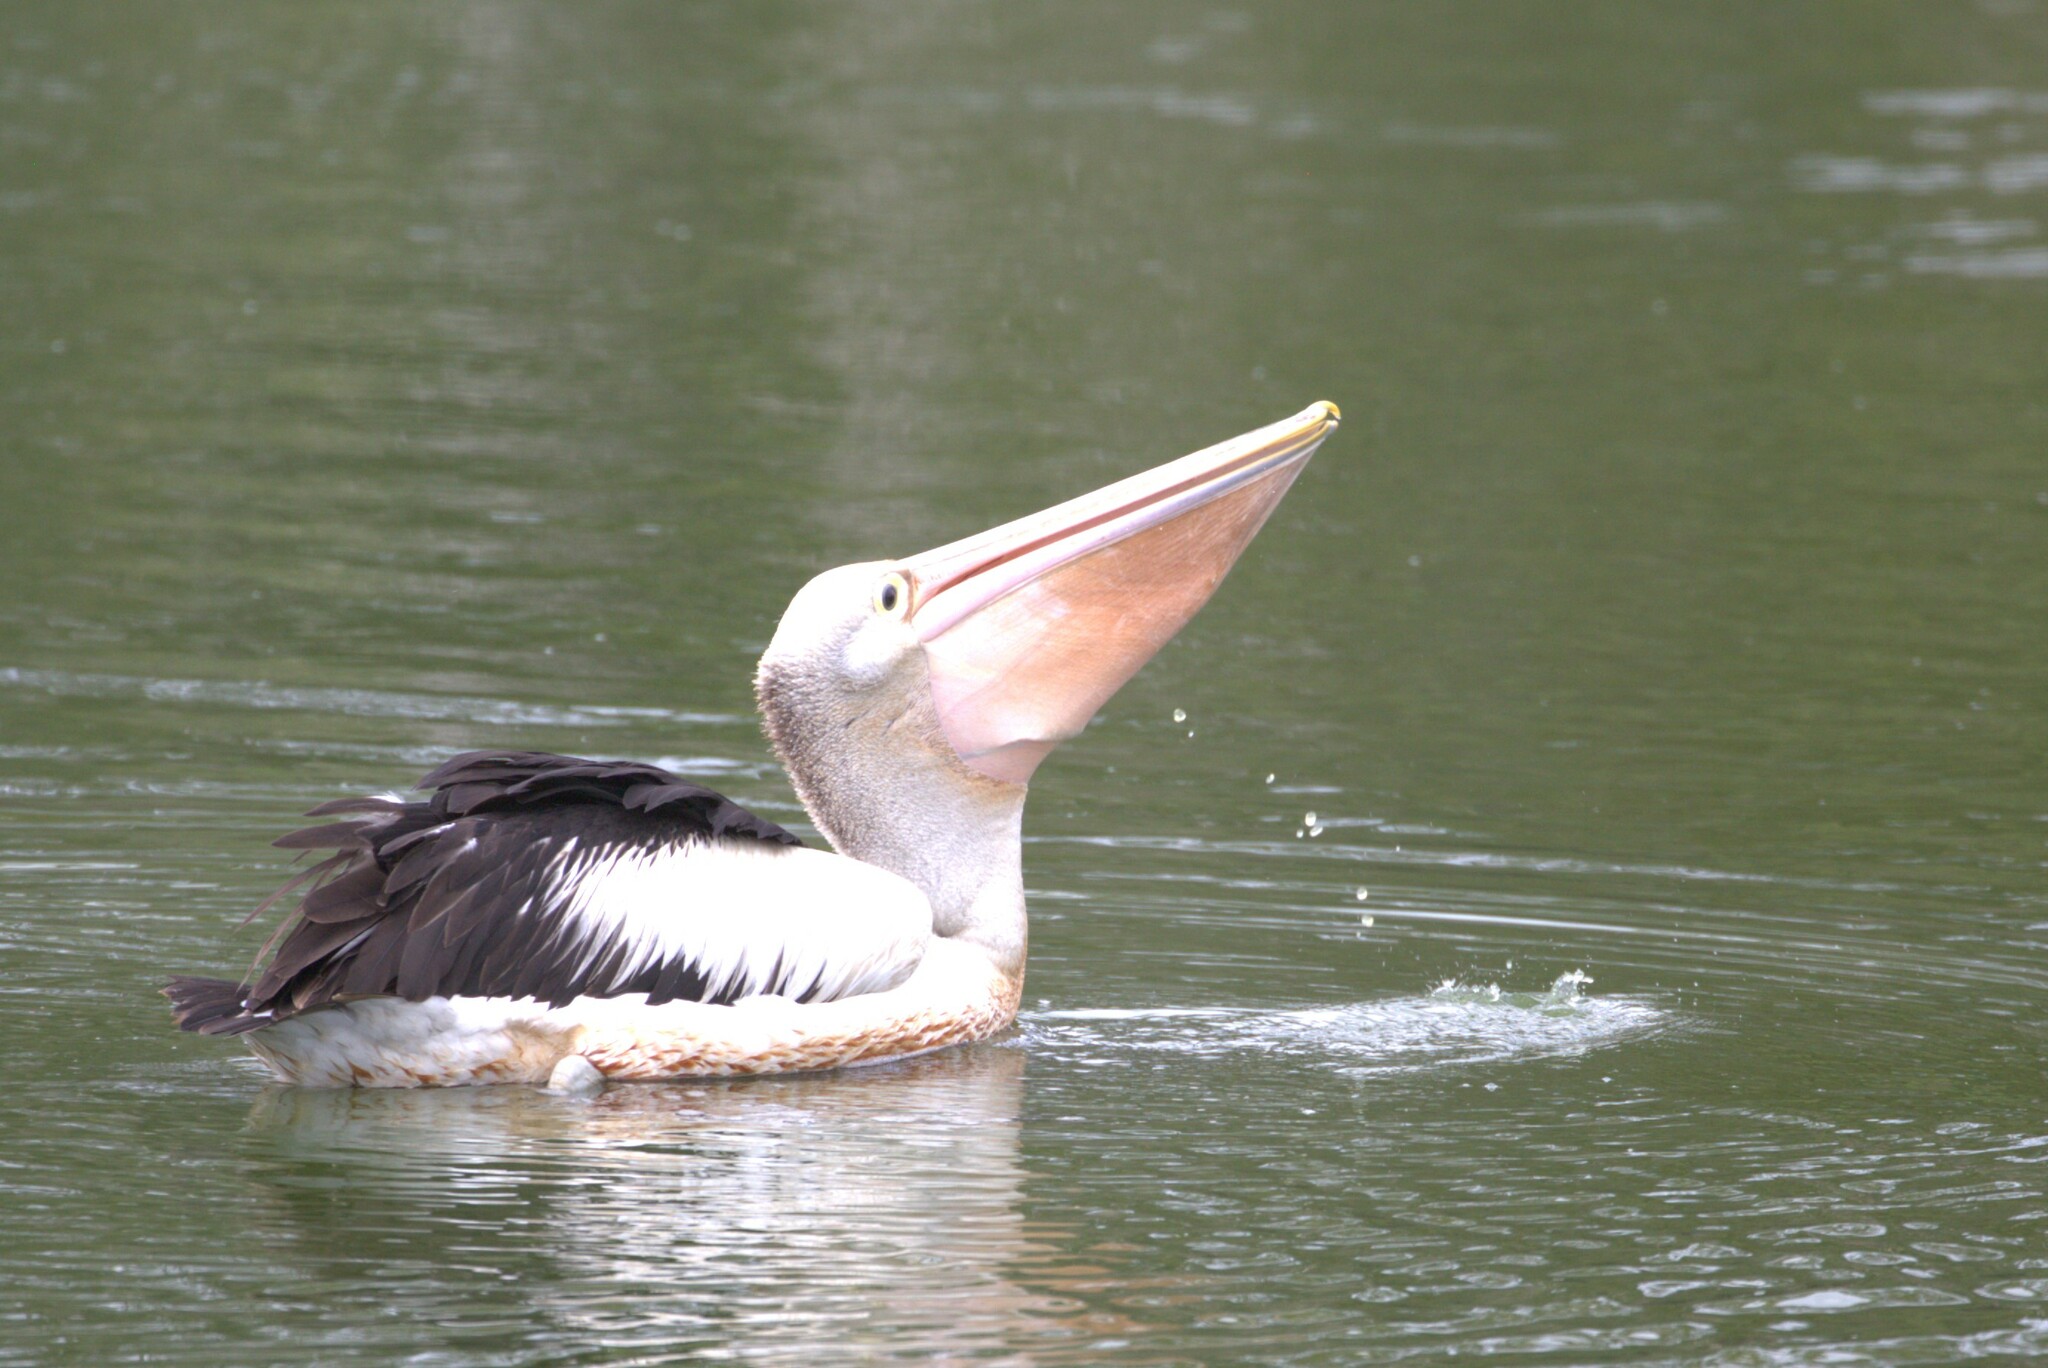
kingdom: Animalia
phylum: Chordata
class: Aves
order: Pelecaniformes
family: Pelecanidae
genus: Pelecanus
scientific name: Pelecanus conspicillatus
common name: Australian pelican
